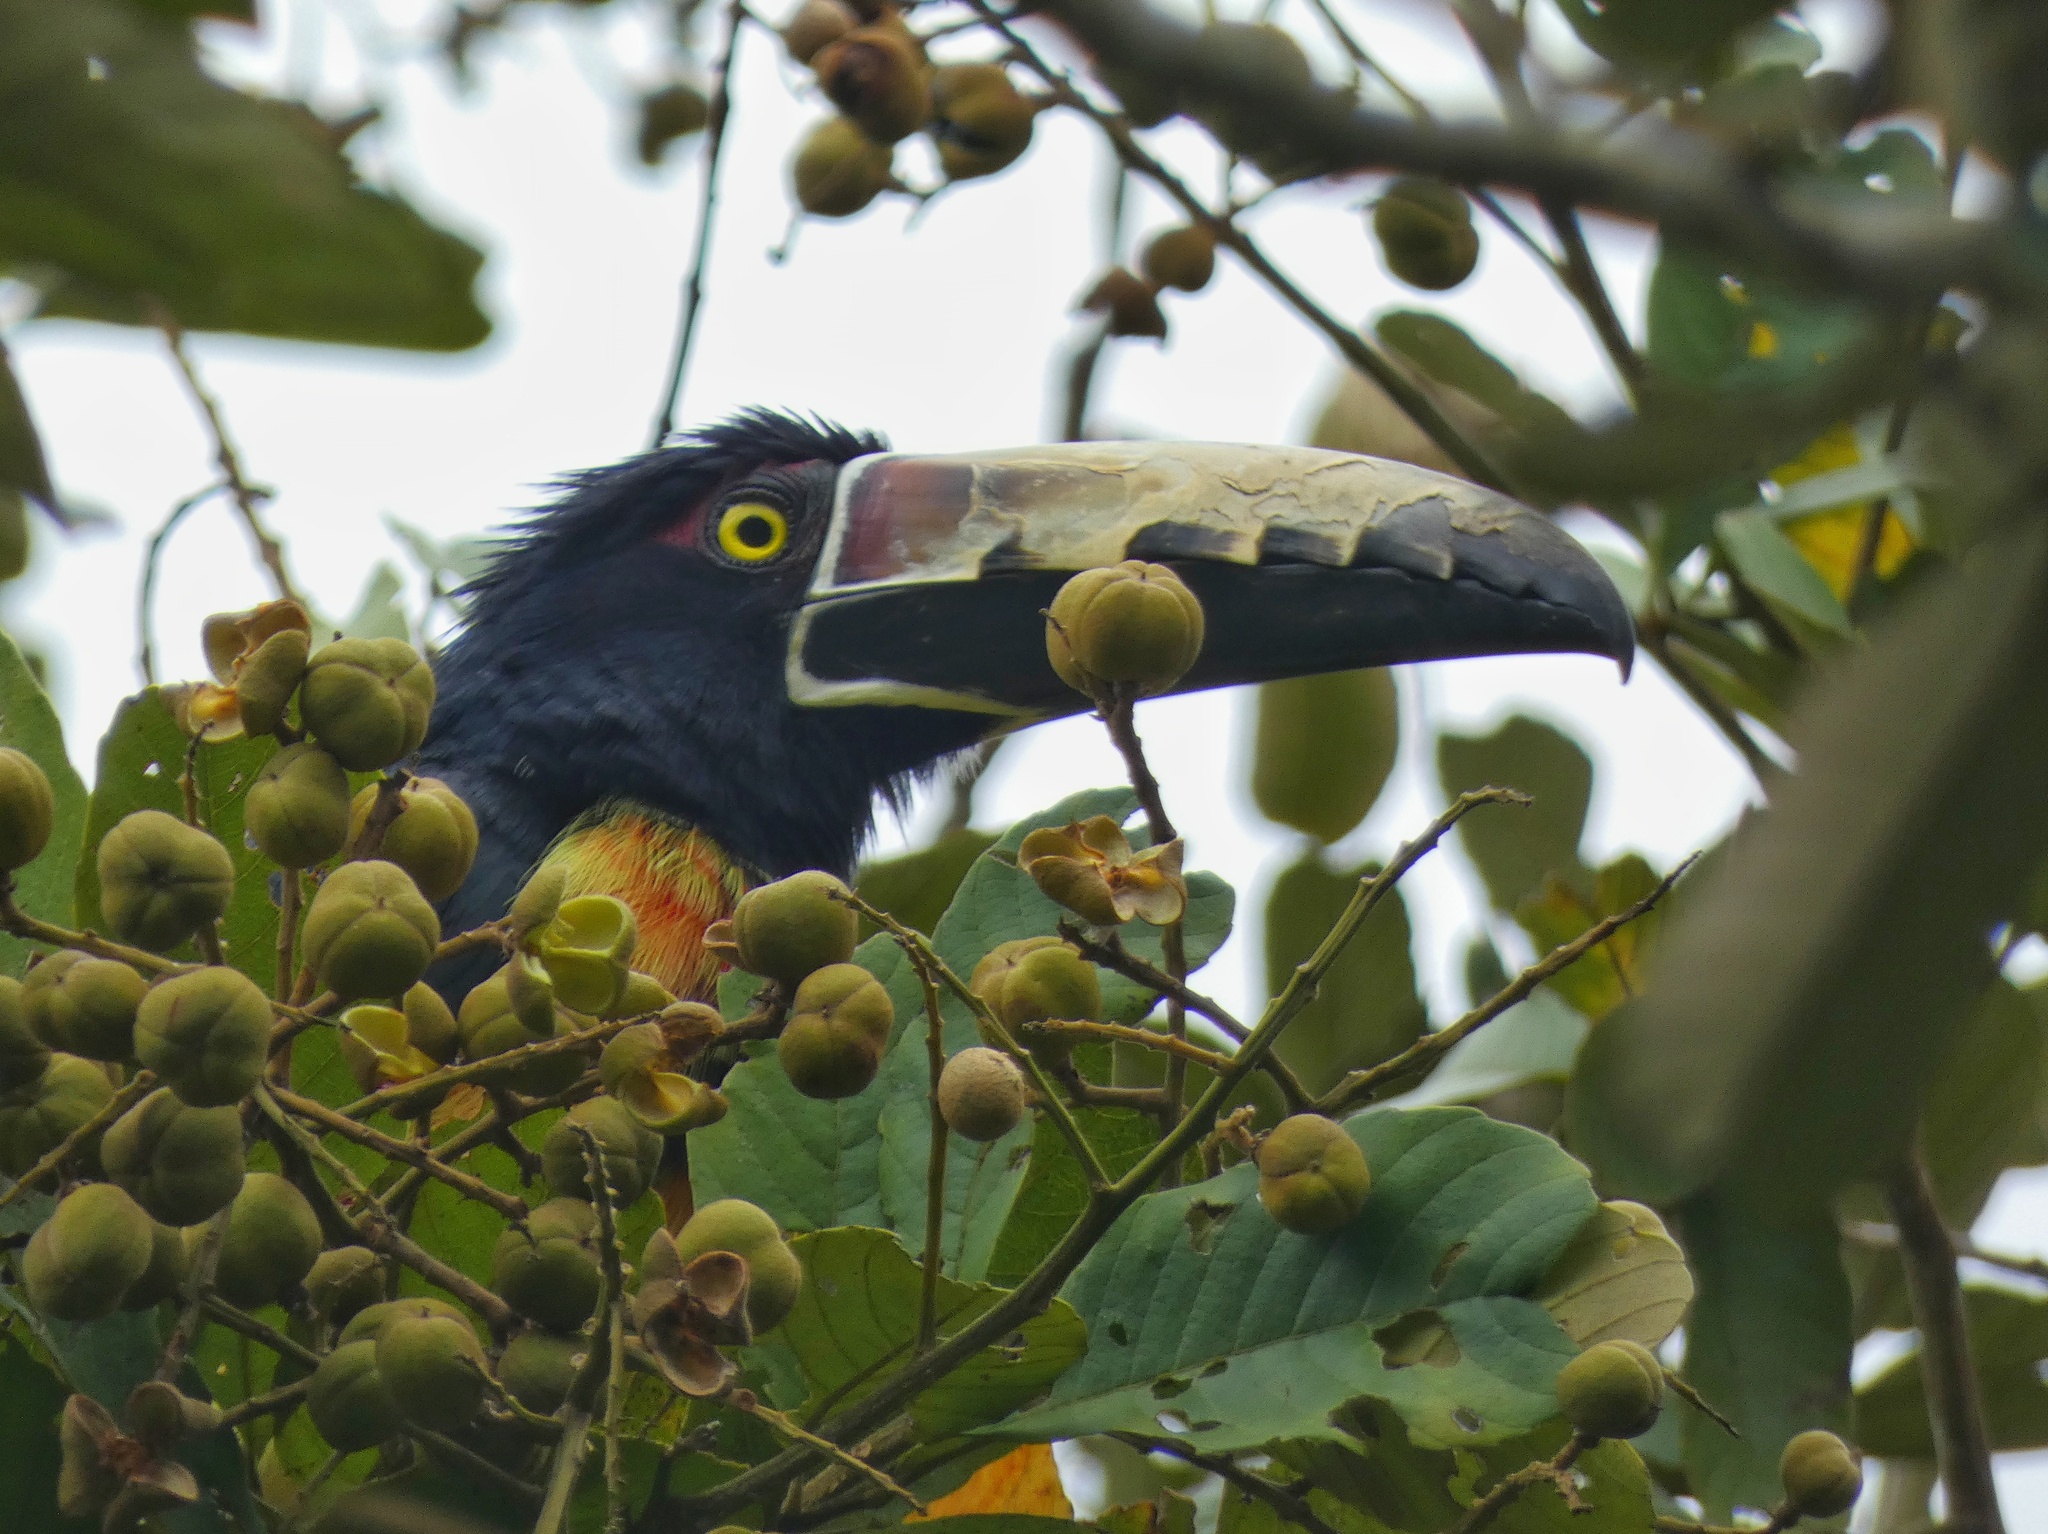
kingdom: Animalia
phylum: Chordata
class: Aves
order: Piciformes
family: Ramphastidae
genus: Pteroglossus
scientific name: Pteroglossus torquatus
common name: Collared aracari
